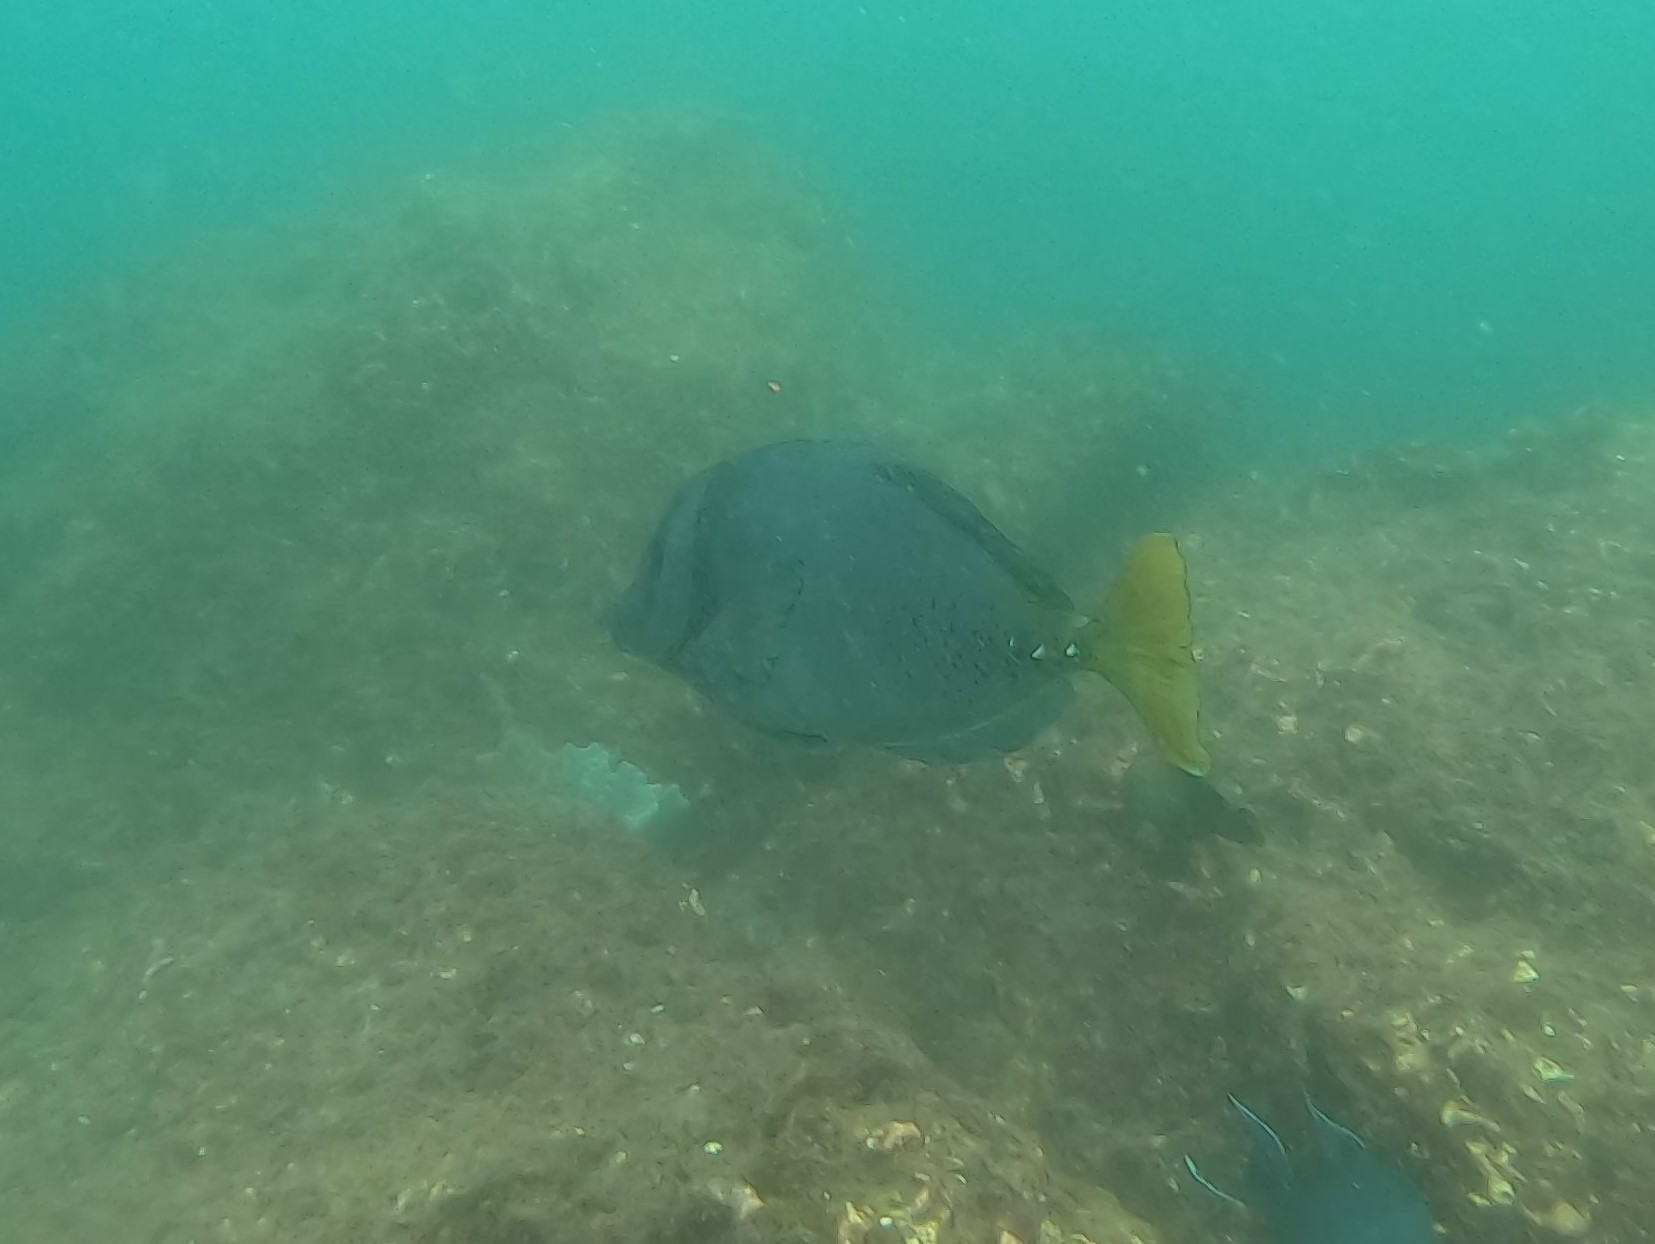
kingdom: Animalia
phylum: Chordata
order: Perciformes
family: Acanthuridae
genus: Prionurus
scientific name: Prionurus laticlavius
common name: Razor surgeonfish
